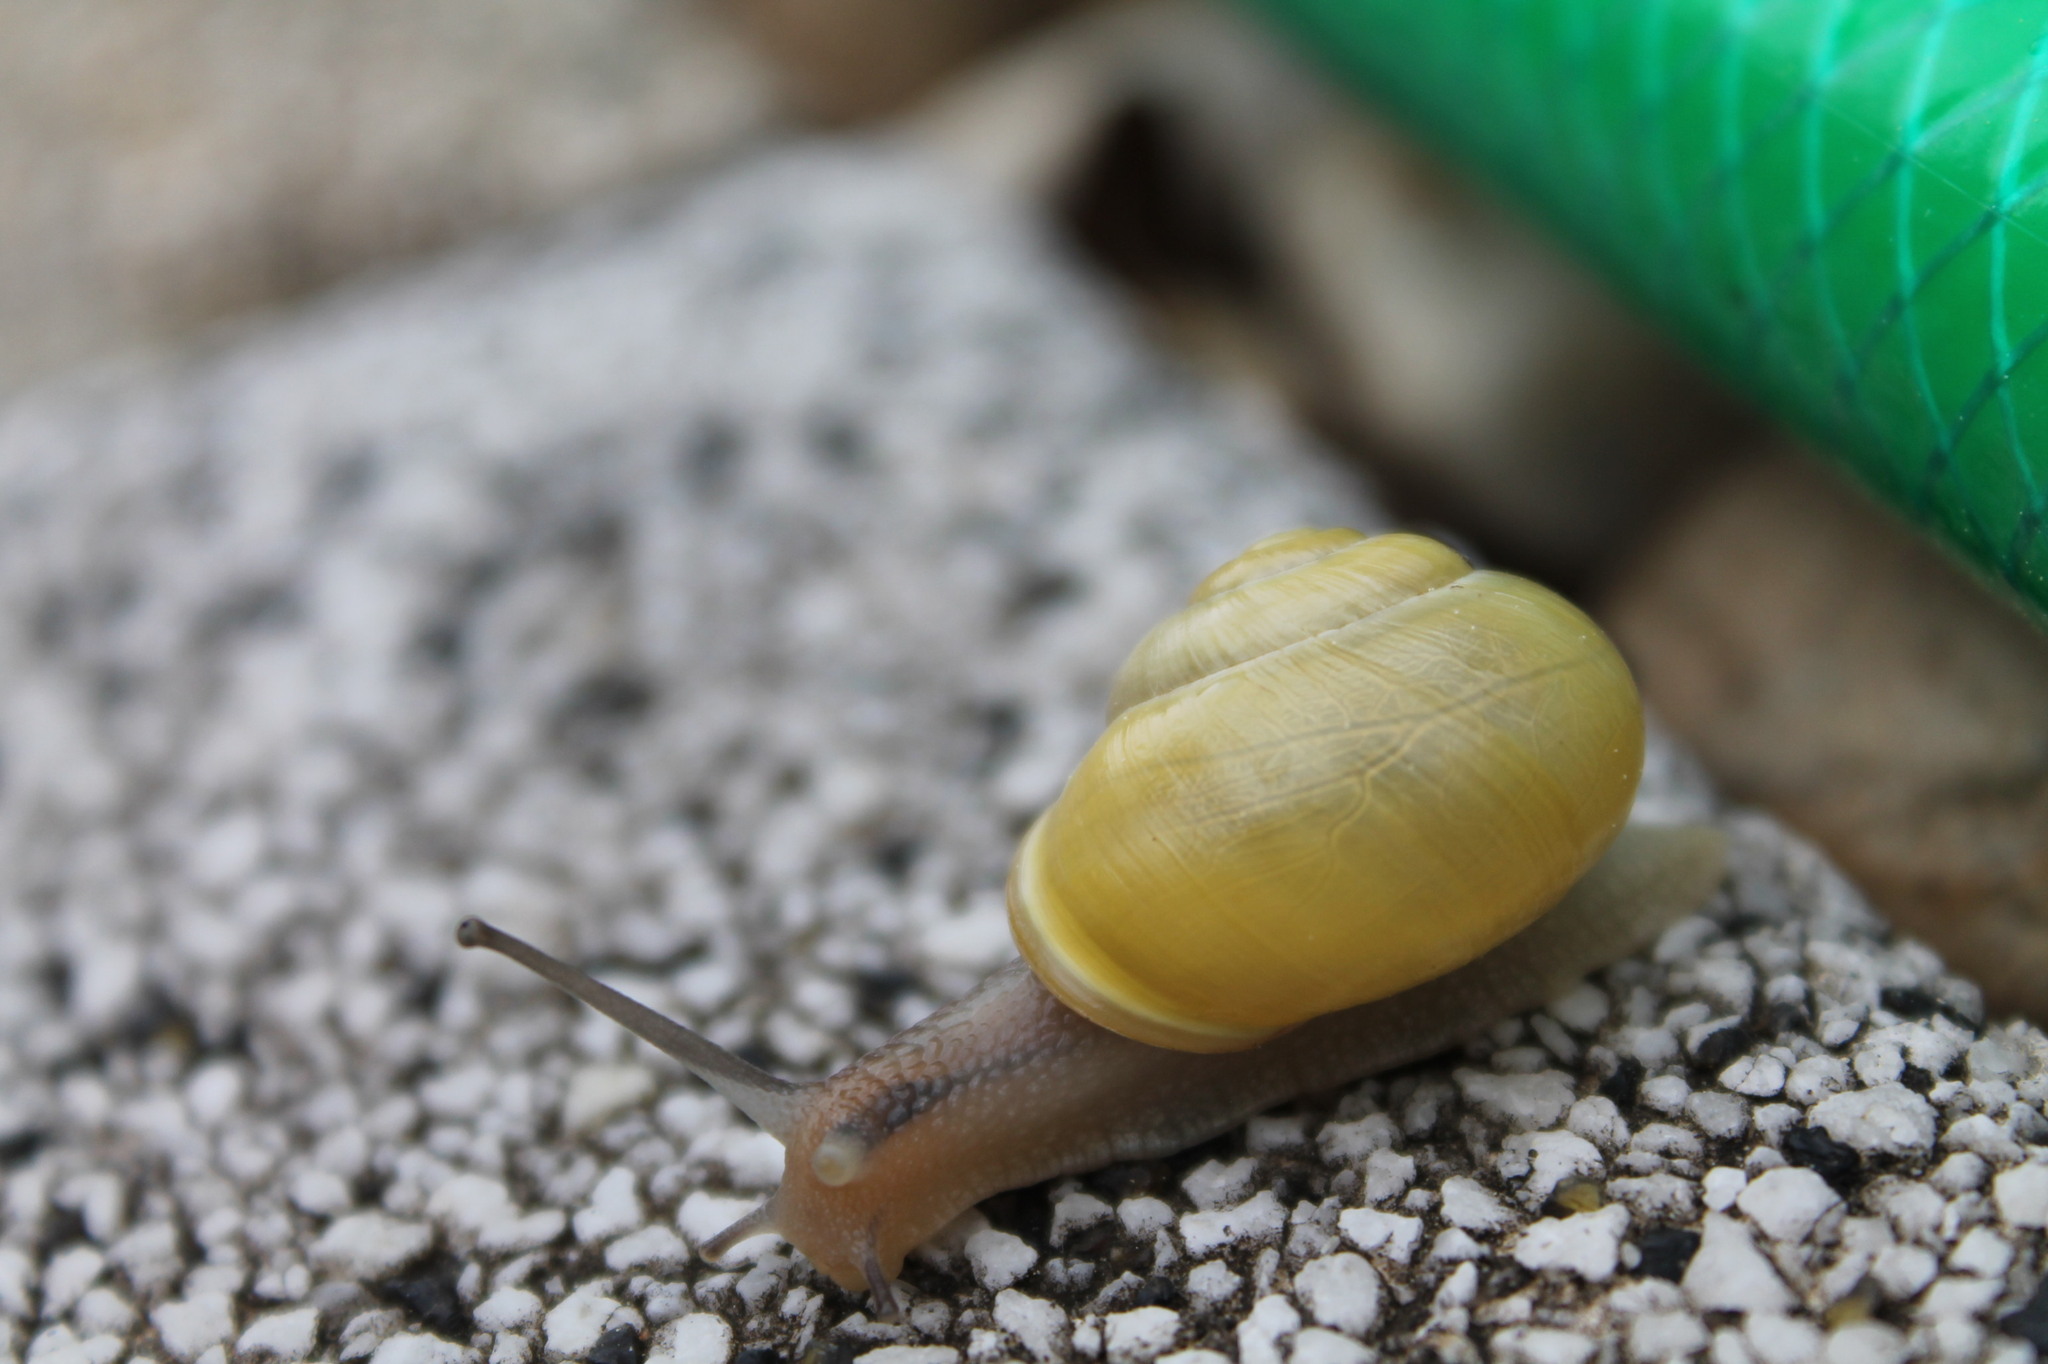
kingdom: Animalia
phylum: Mollusca
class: Gastropoda
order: Stylommatophora
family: Helicidae
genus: Cepaea
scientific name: Cepaea hortensis
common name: White-lip gardensnail
